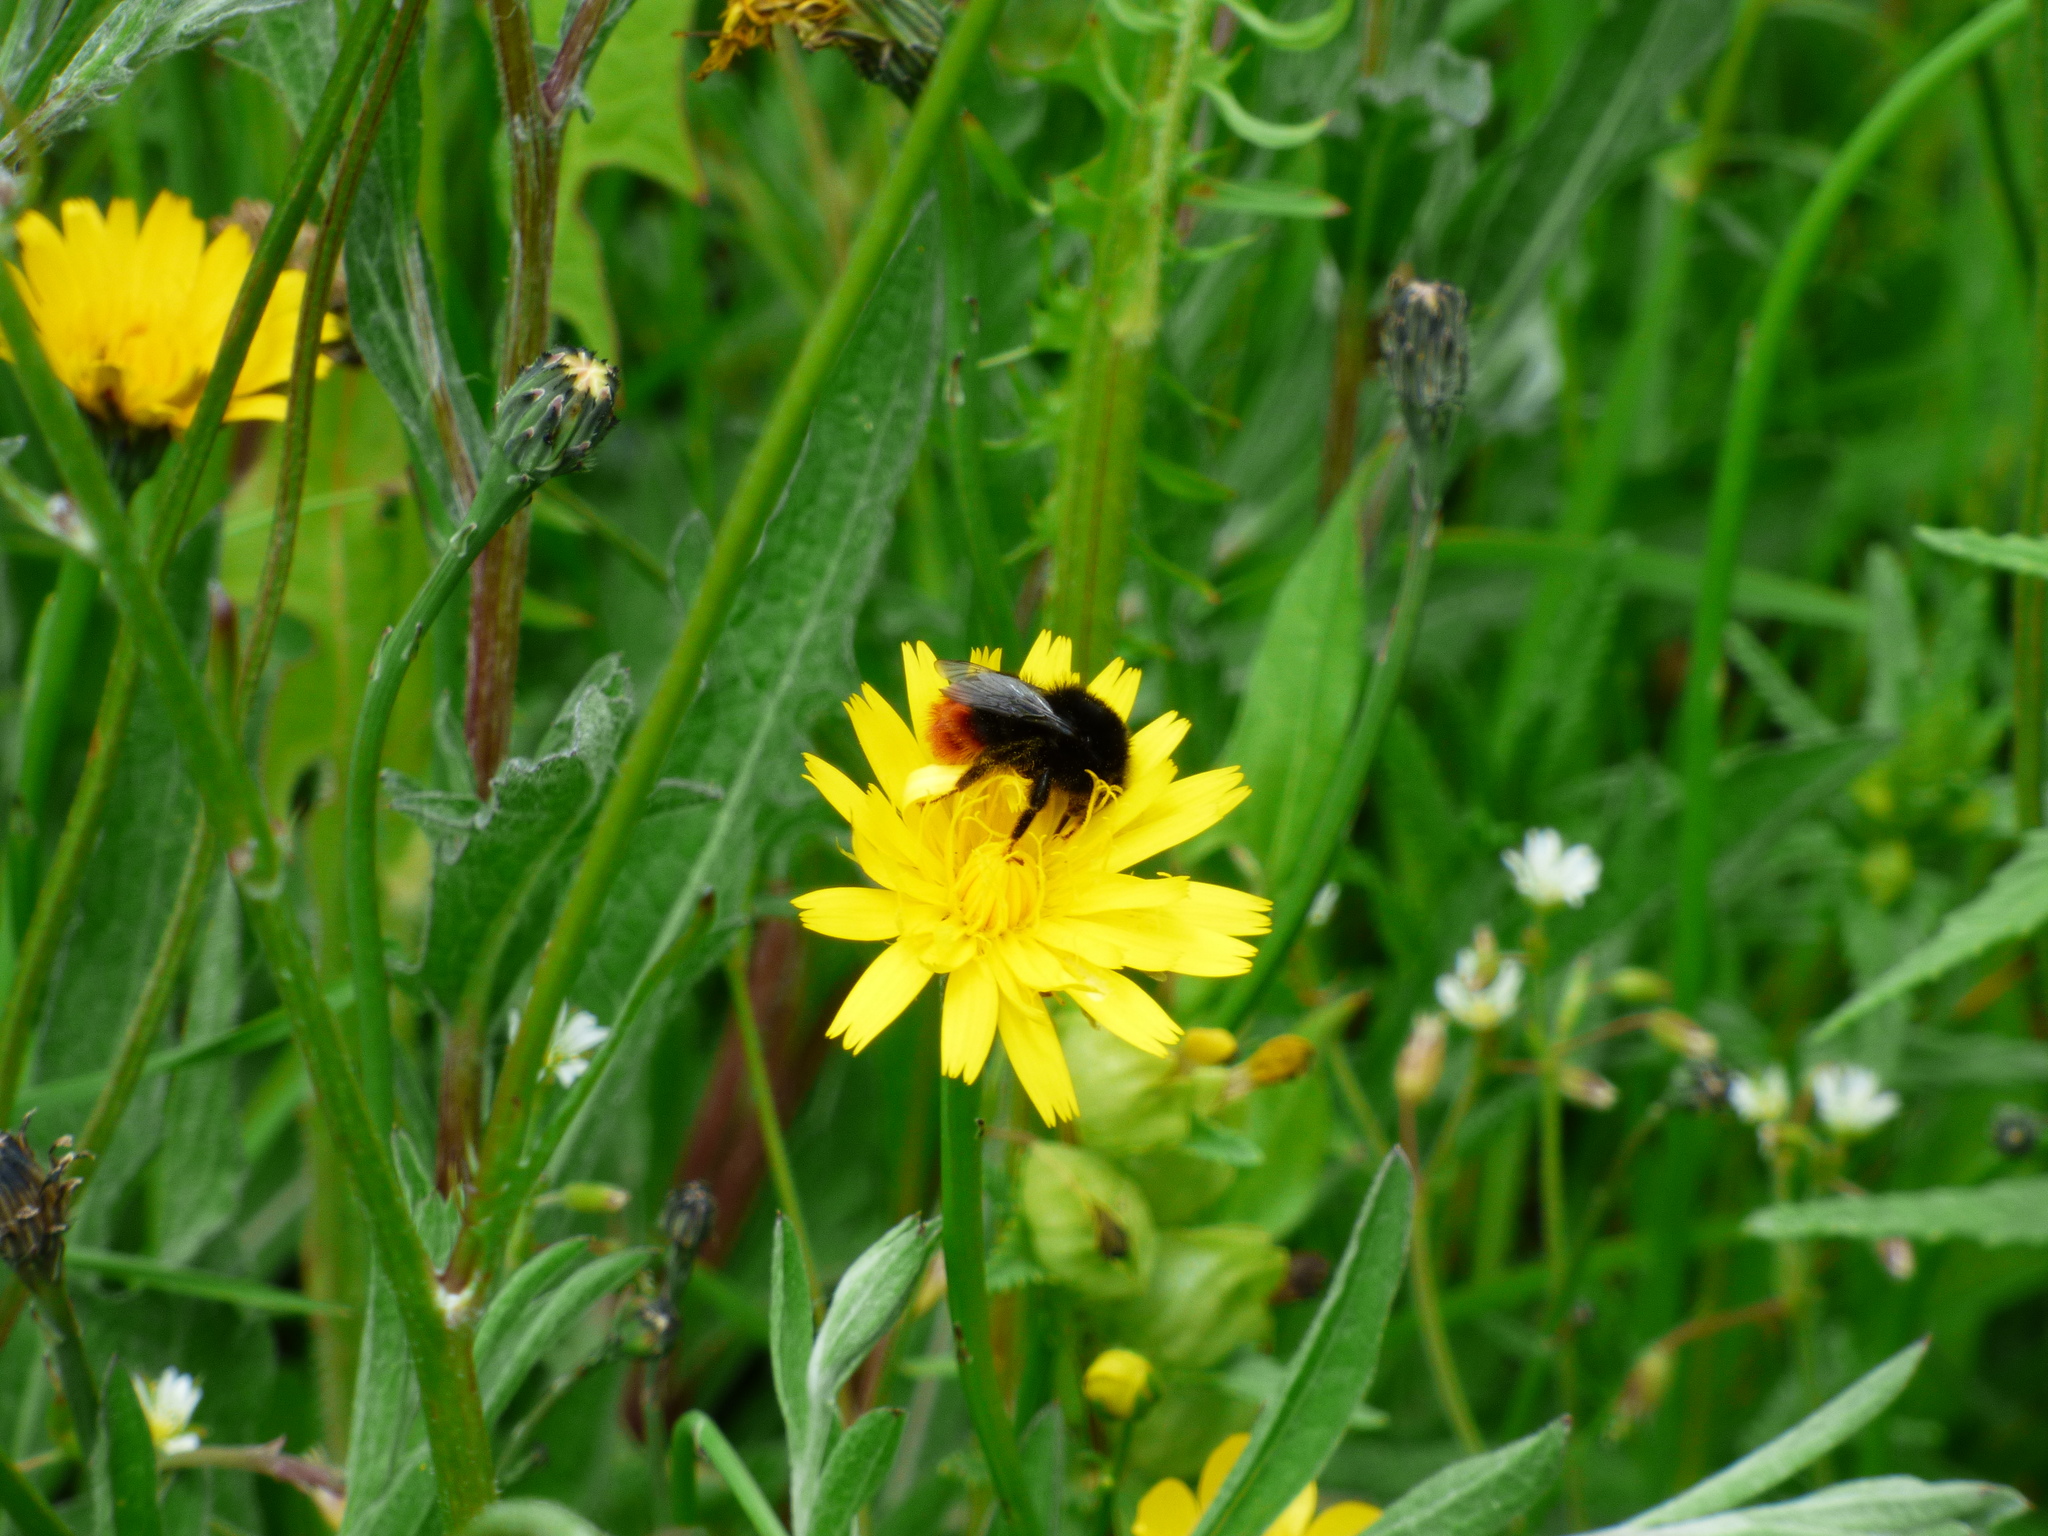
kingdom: Animalia
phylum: Arthropoda
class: Insecta
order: Hymenoptera
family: Apidae
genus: Bombus
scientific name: Bombus lapidarius
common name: Large red-tailed humble-bee
